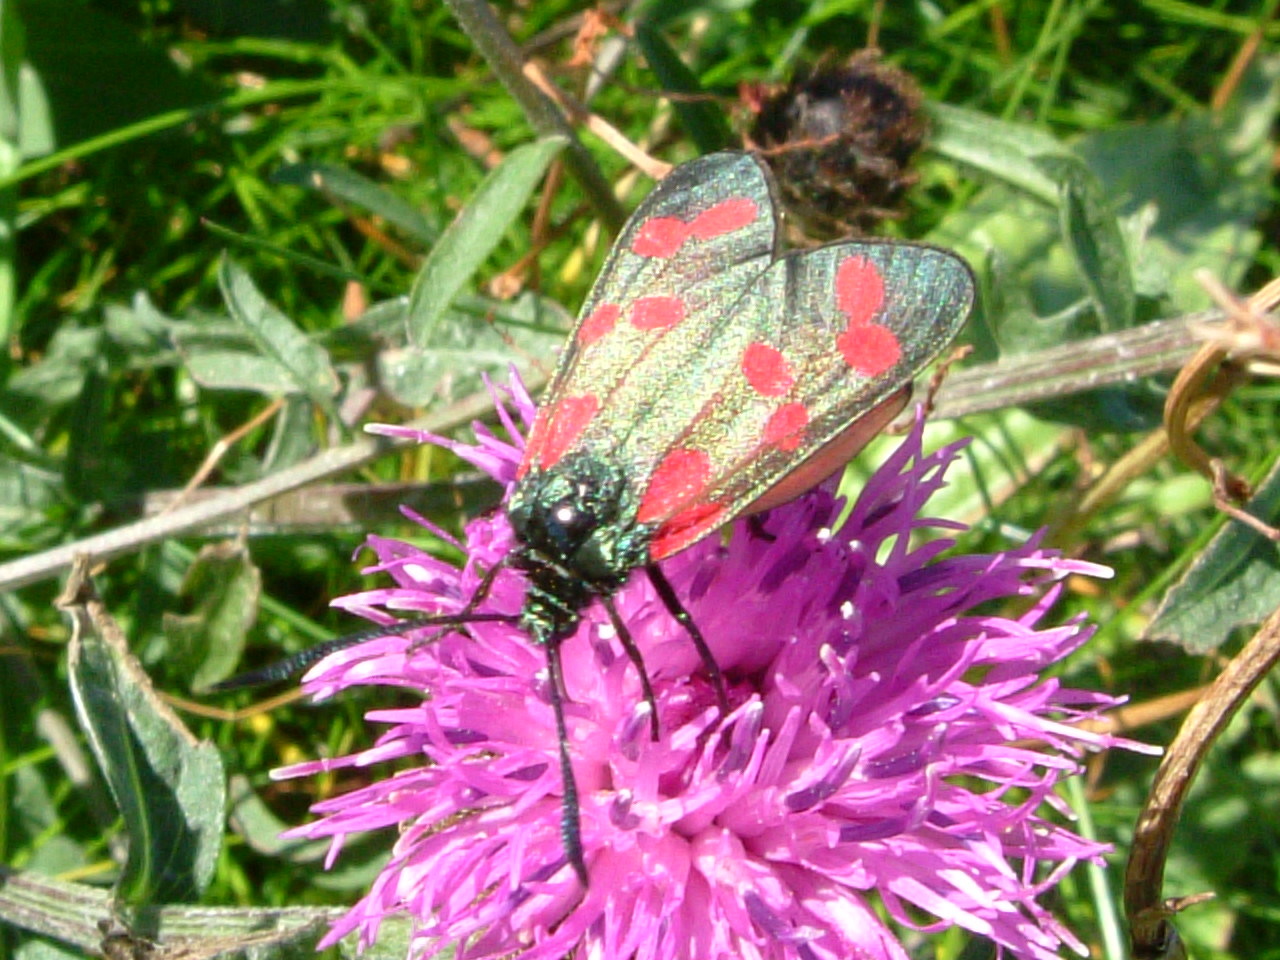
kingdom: Animalia
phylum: Arthropoda
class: Insecta
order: Lepidoptera
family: Zygaenidae
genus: Zygaena
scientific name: Zygaena filipendulae
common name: Six-spot burnet
